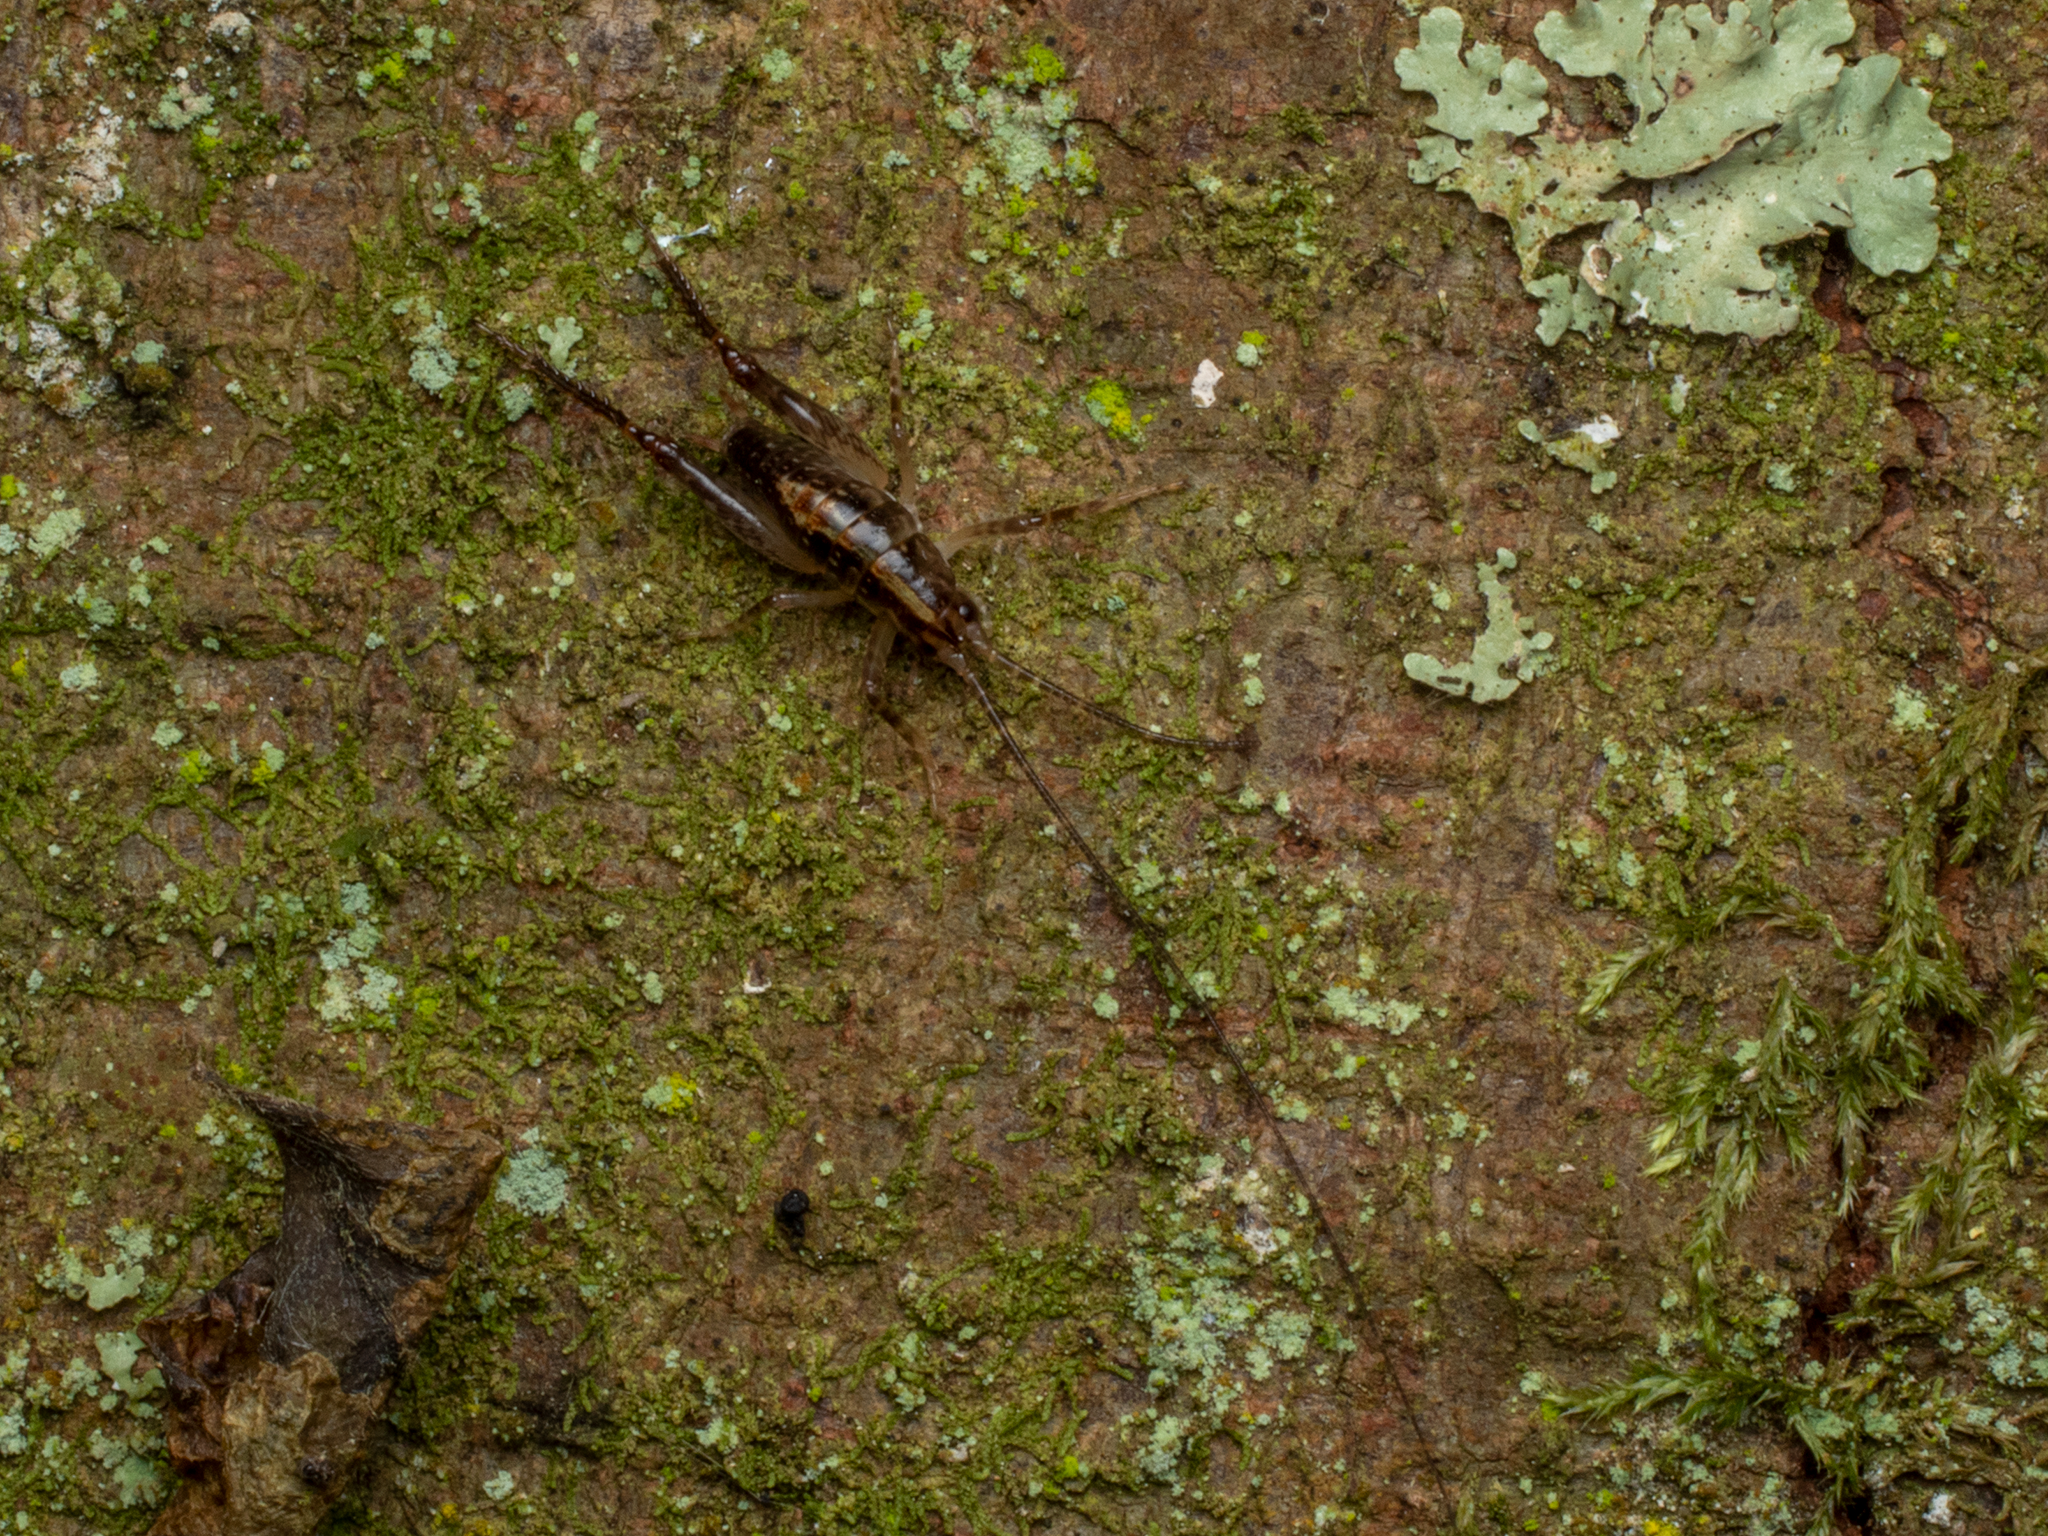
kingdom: Animalia
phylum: Arthropoda
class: Insecta
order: Orthoptera
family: Rhaphidophoridae
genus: Talitropsis
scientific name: Talitropsis sedilloti
